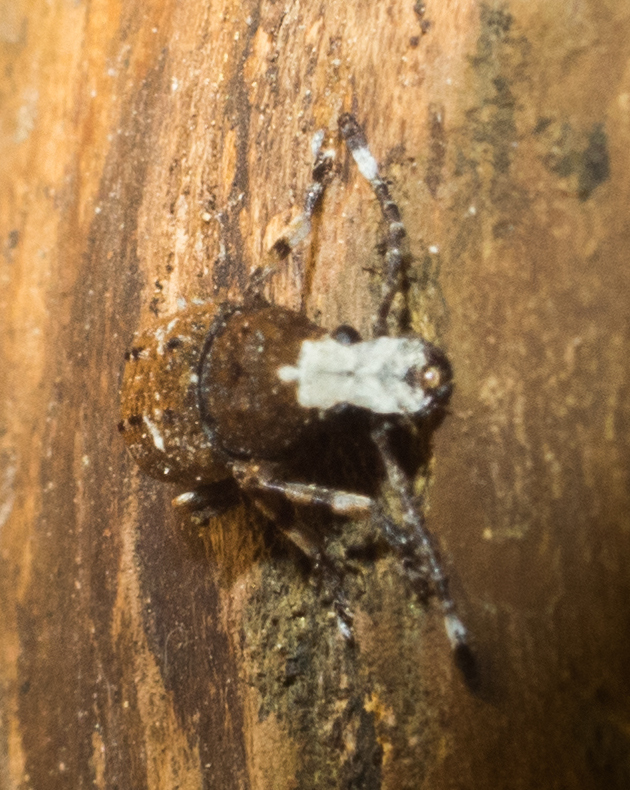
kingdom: Animalia
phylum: Arthropoda
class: Insecta
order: Coleoptera
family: Anthribidae
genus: Platystomos
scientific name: Platystomos albinus
